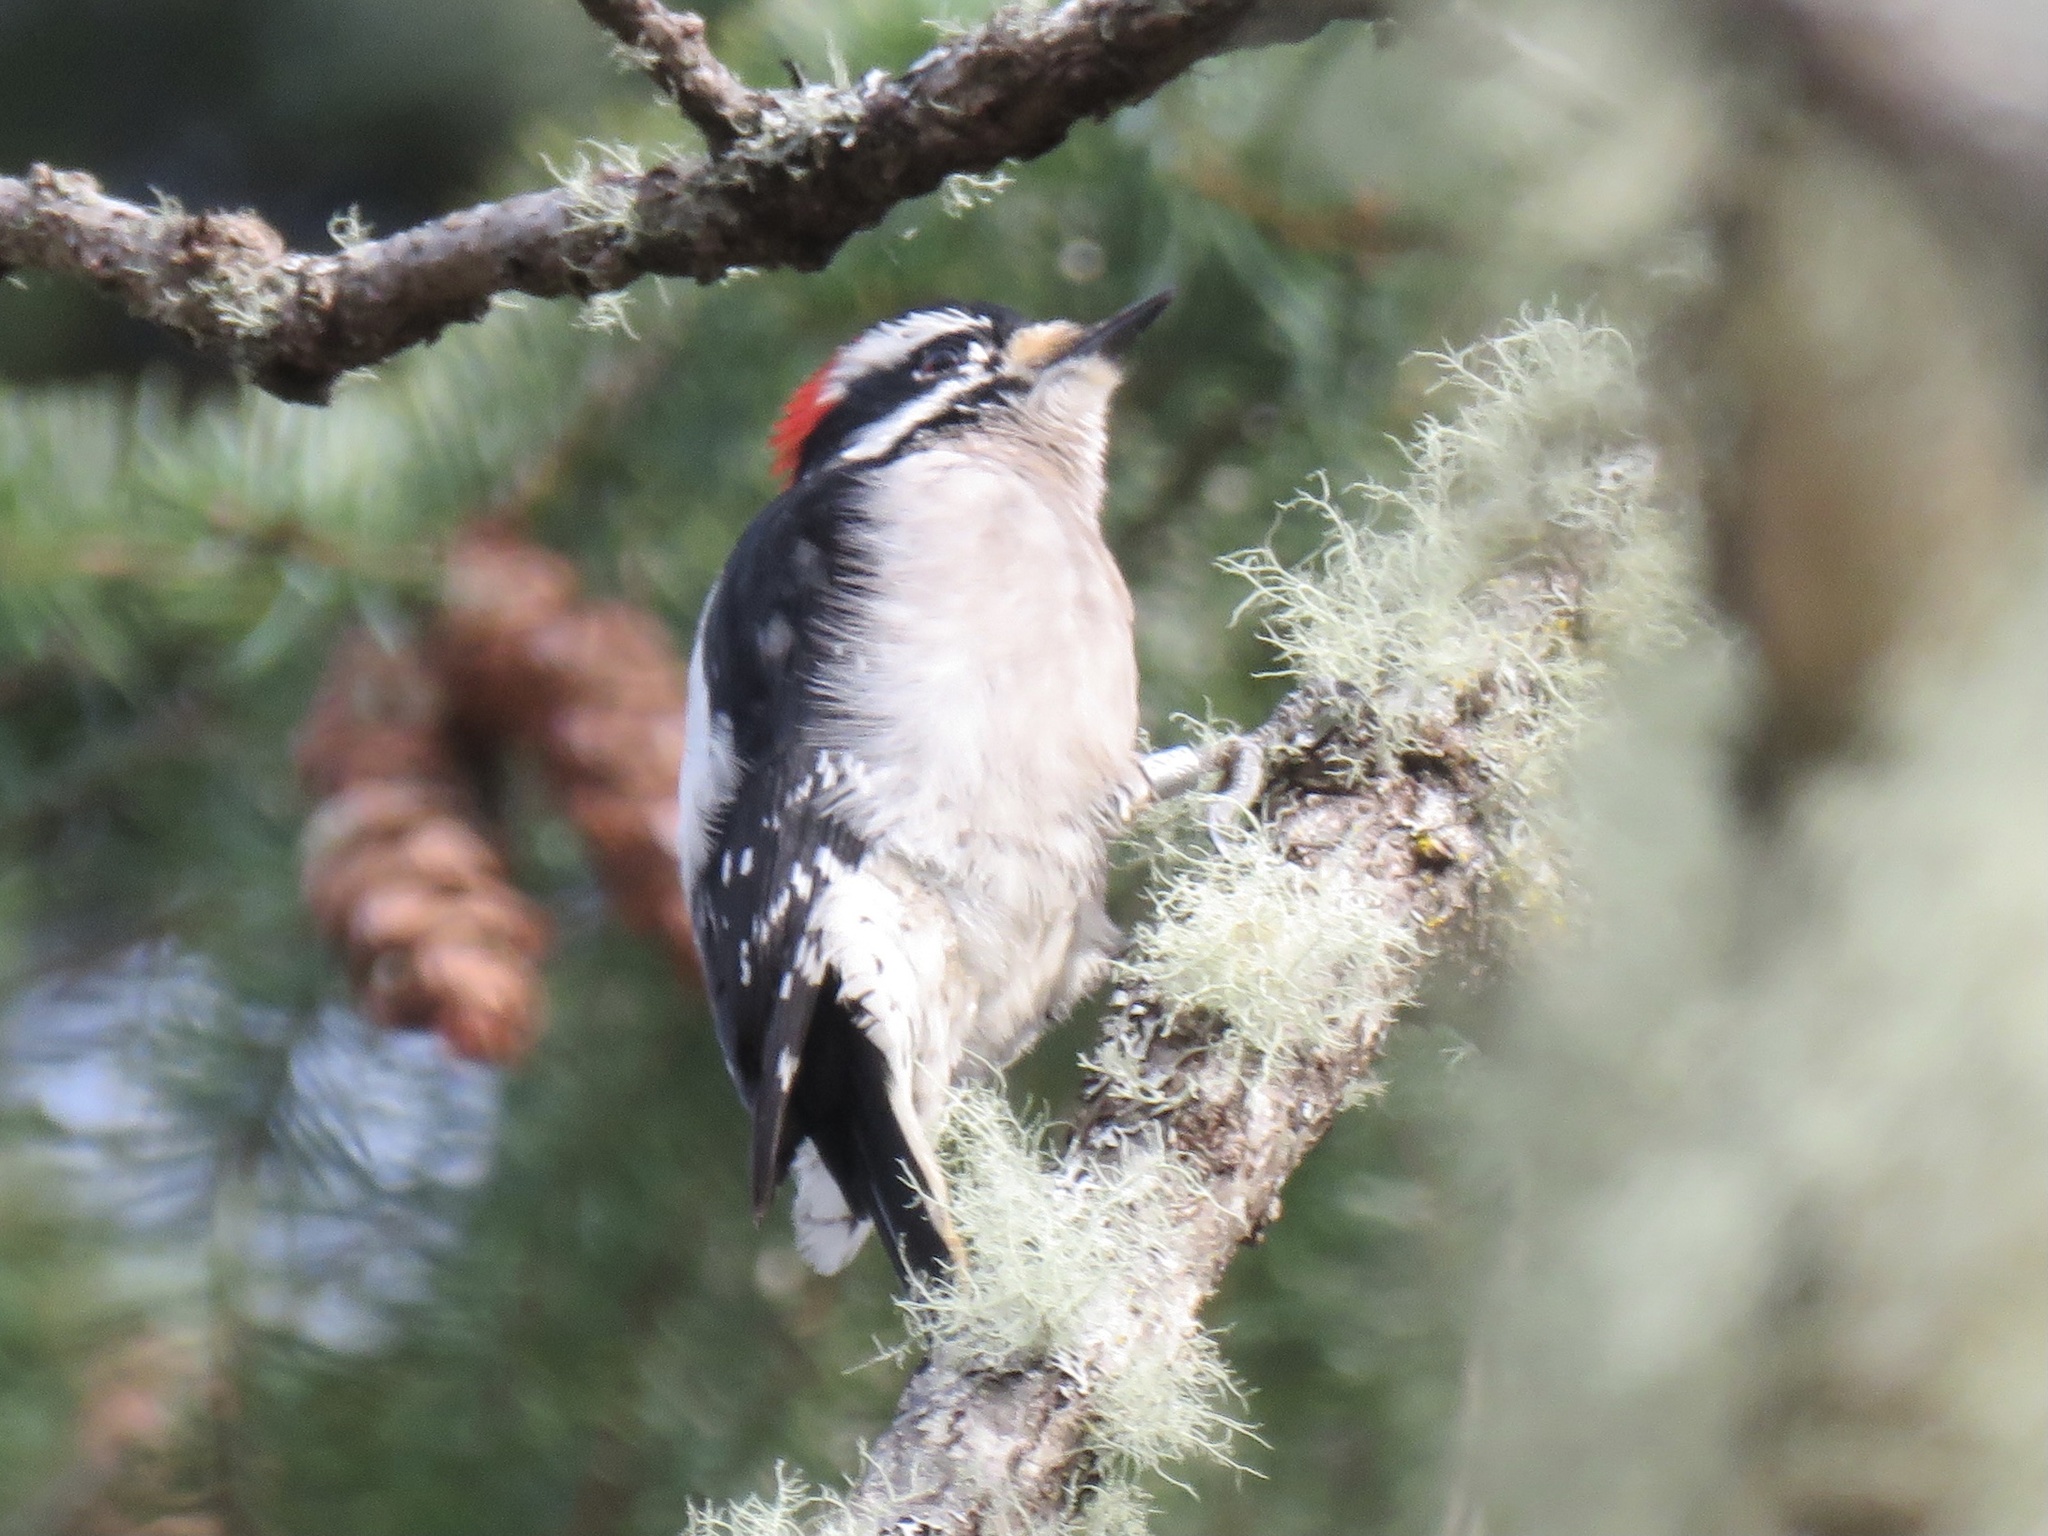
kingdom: Animalia
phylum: Chordata
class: Aves
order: Piciformes
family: Picidae
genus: Dryobates
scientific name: Dryobates pubescens
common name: Downy woodpecker
